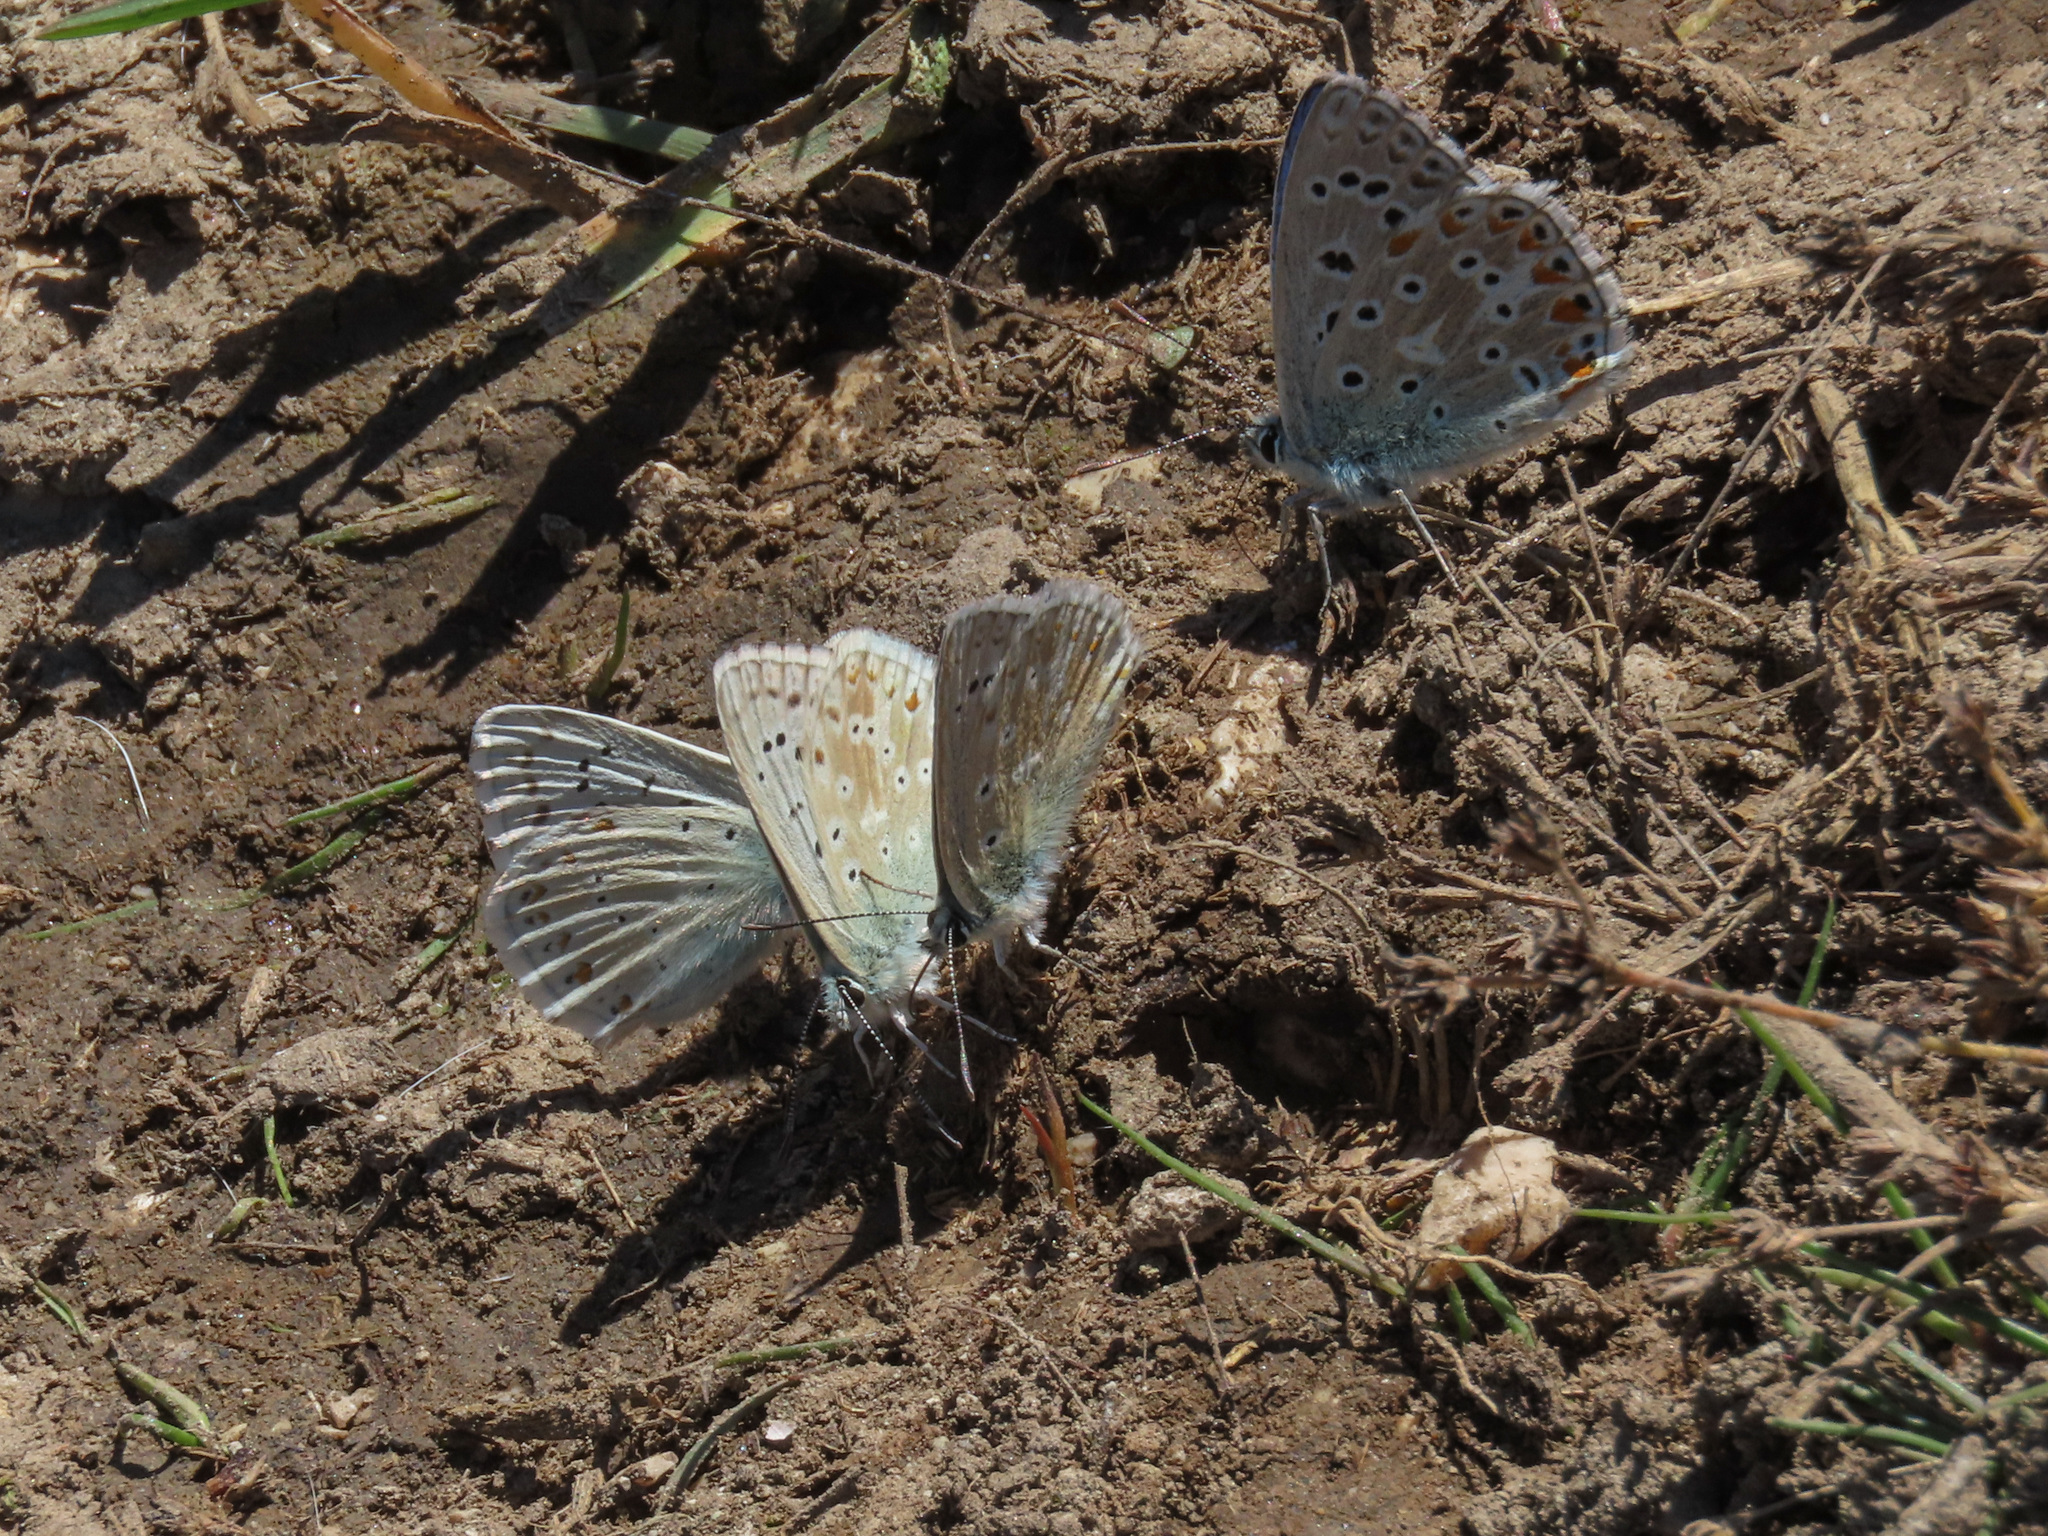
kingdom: Animalia
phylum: Arthropoda
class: Insecta
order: Lepidoptera
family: Lycaenidae
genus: Lysandra
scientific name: Lysandra coridon
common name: Chalkhill blue
